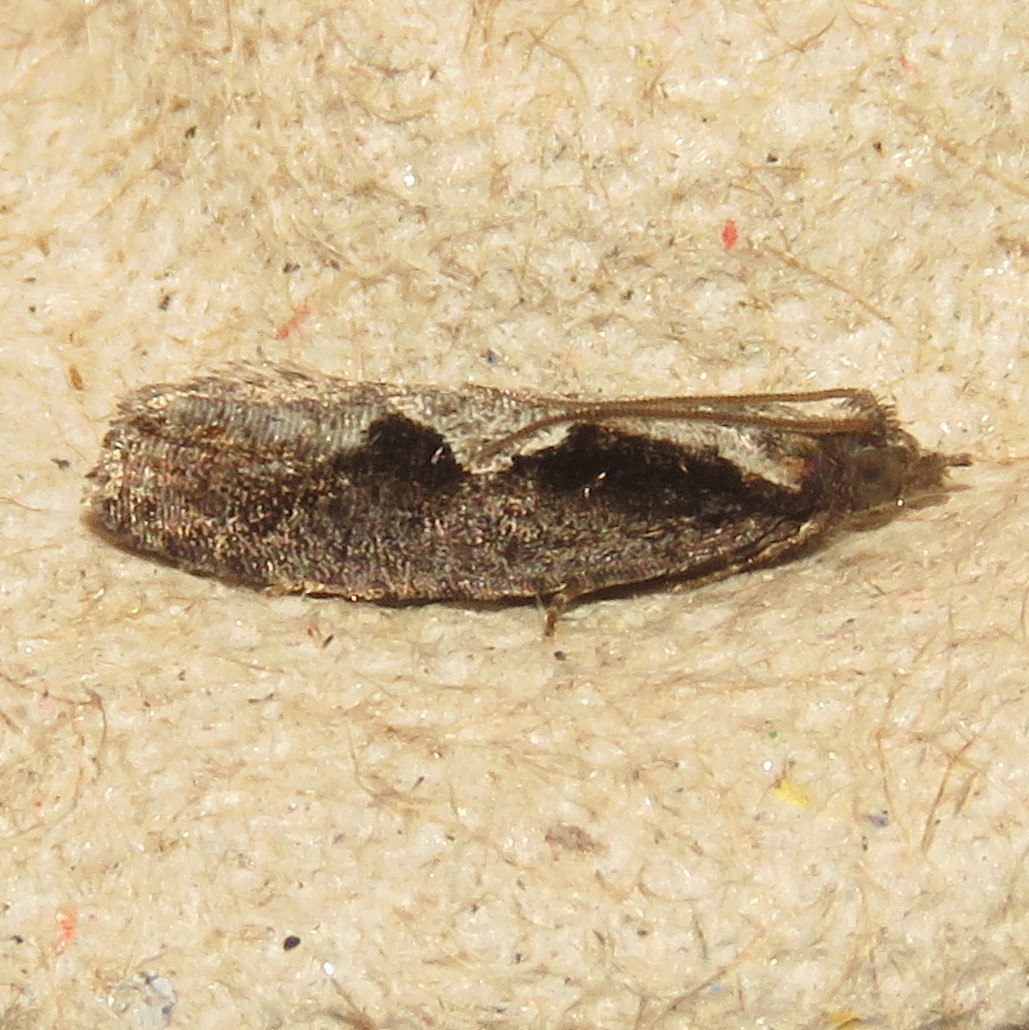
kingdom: Animalia
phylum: Arthropoda
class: Insecta
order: Lepidoptera
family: Tortricidae
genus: Epinotia
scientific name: Epinotia lindana
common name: Diamondback epinotia moth
